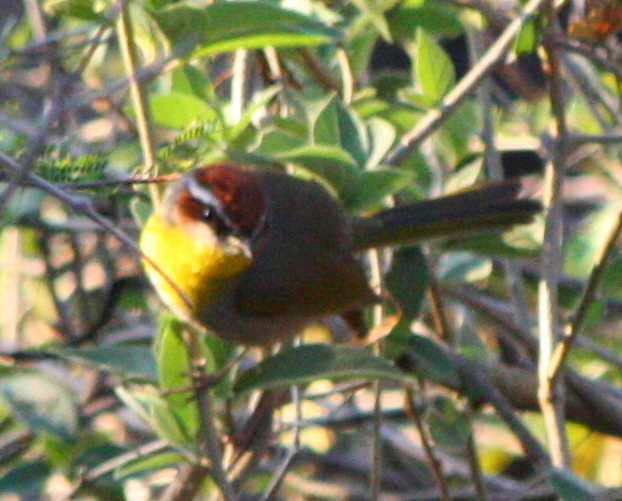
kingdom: Animalia
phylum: Chordata
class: Aves
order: Passeriformes
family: Parulidae
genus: Basileuterus
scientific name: Basileuterus rufifrons
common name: Rufous-capped warbler
